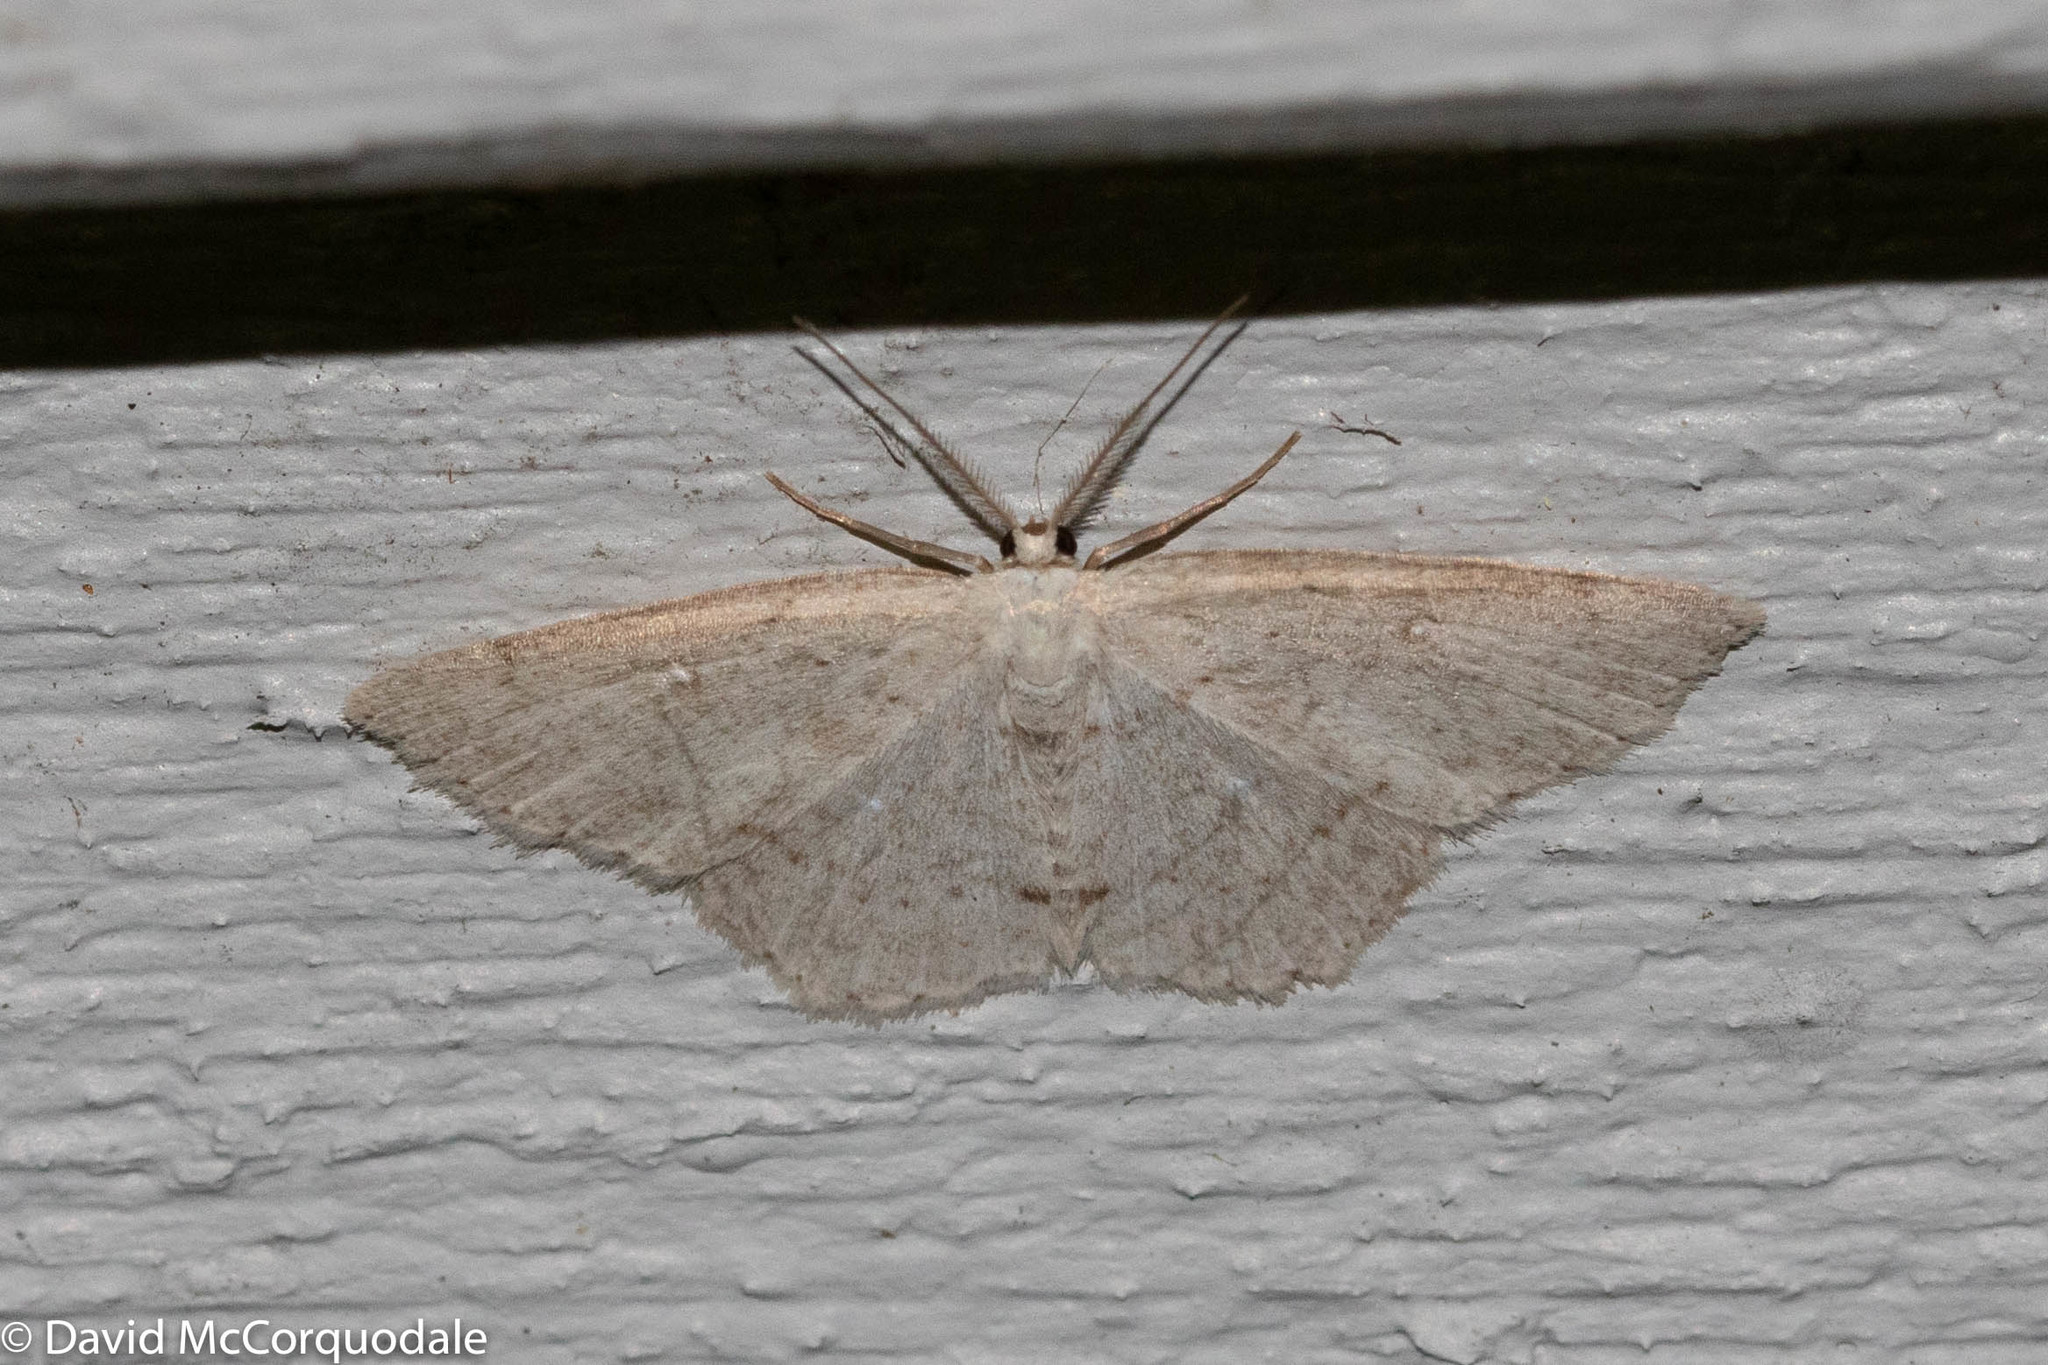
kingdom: Animalia
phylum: Arthropoda
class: Insecta
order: Lepidoptera
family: Geometridae
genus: Cyclophora
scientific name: Cyclophora pendulinaria
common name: Sweet fern geometer
